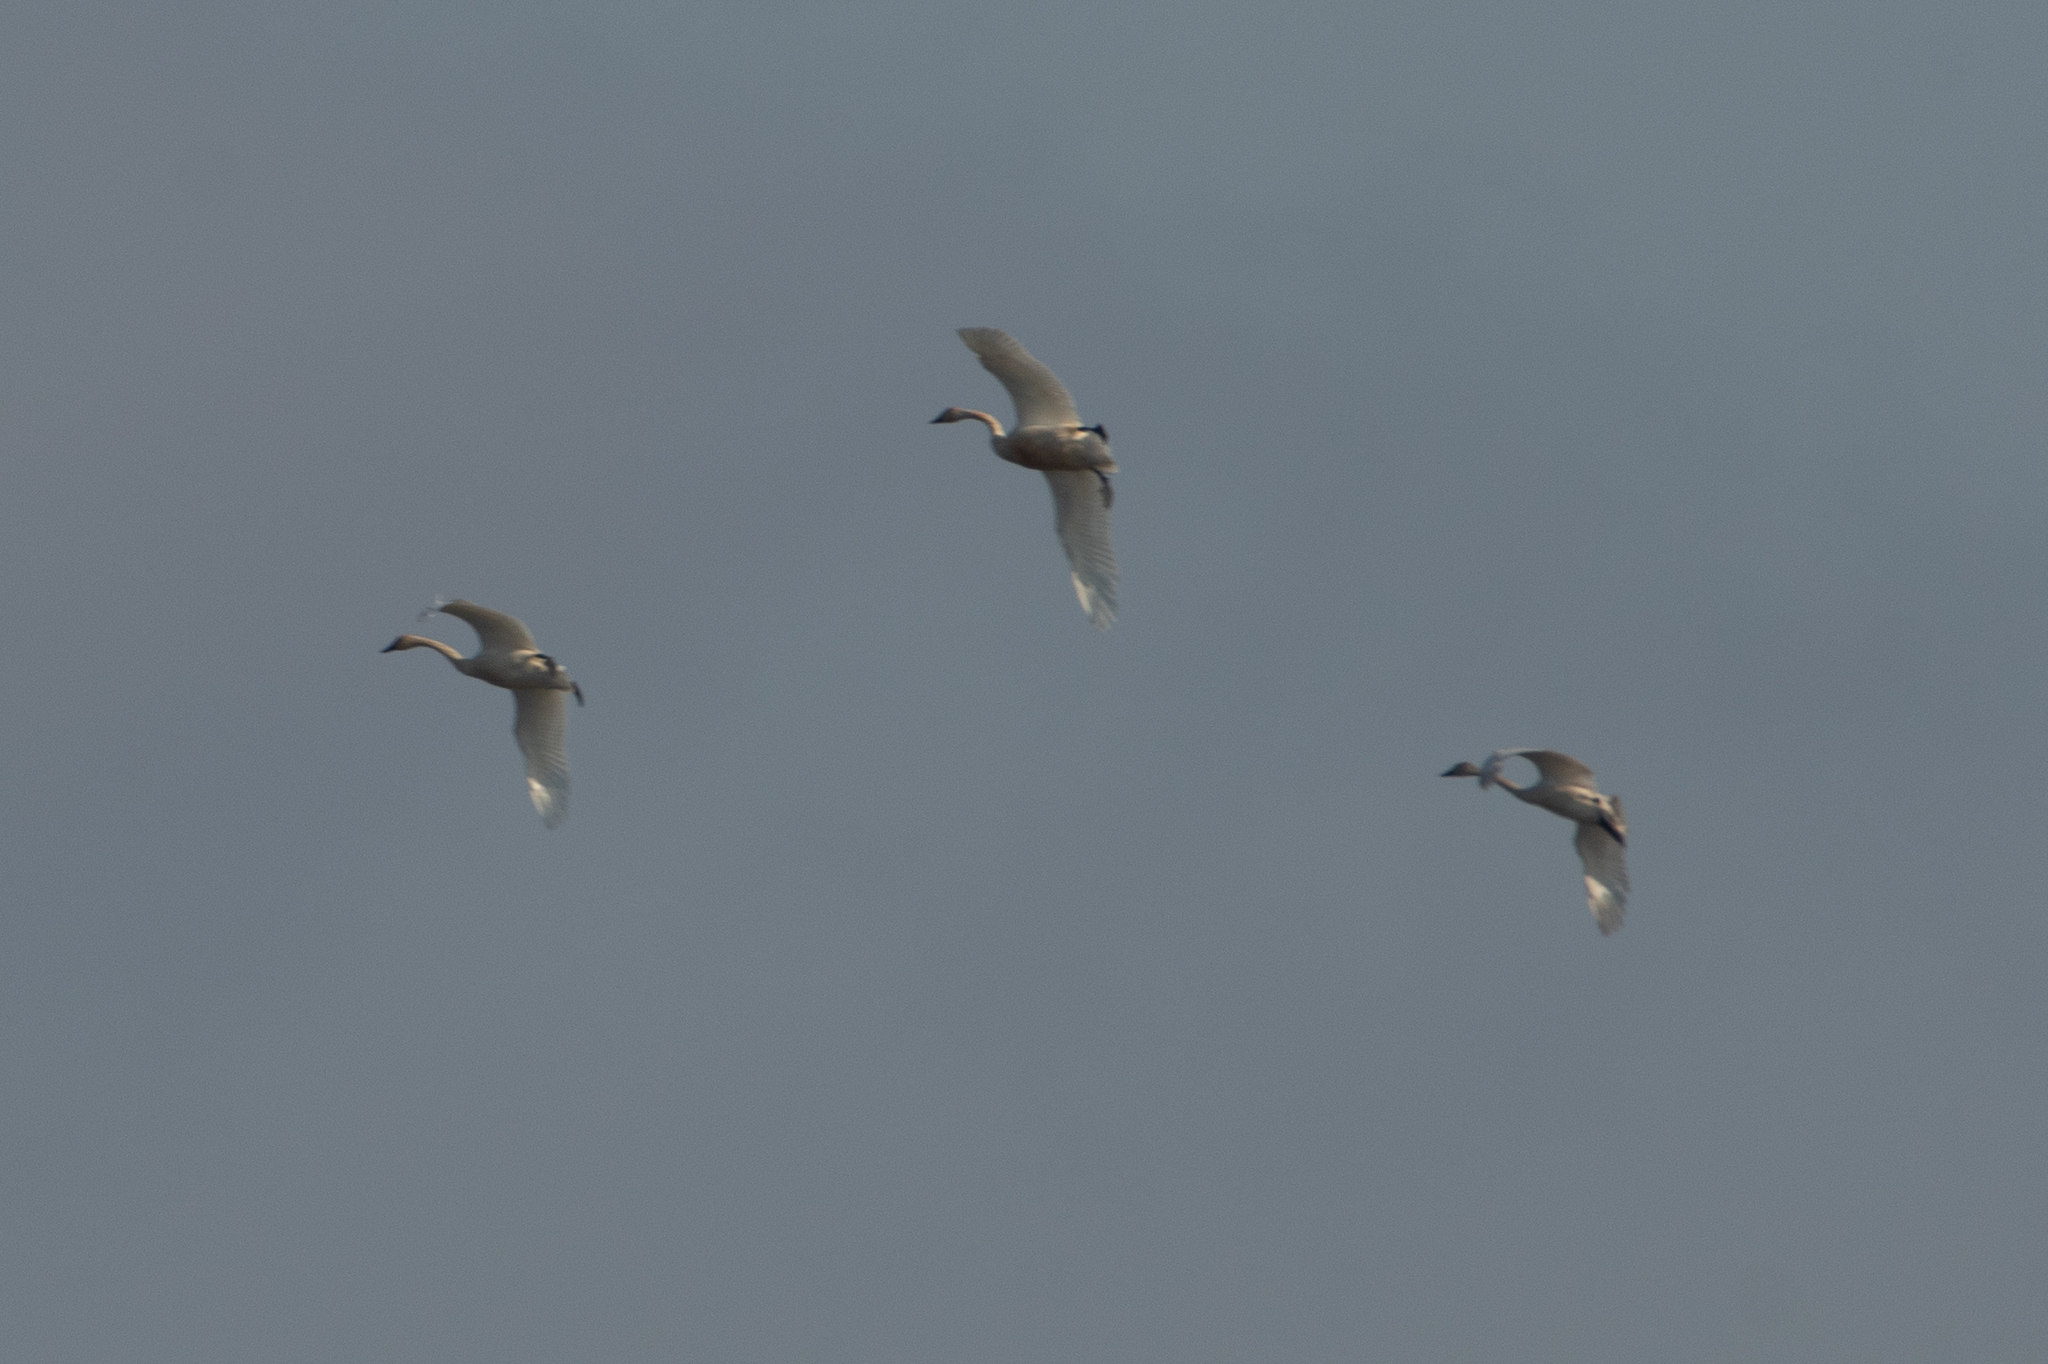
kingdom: Animalia
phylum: Chordata
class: Aves
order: Anseriformes
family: Anatidae
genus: Cygnus
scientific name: Cygnus columbianus
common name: Tundra swan
